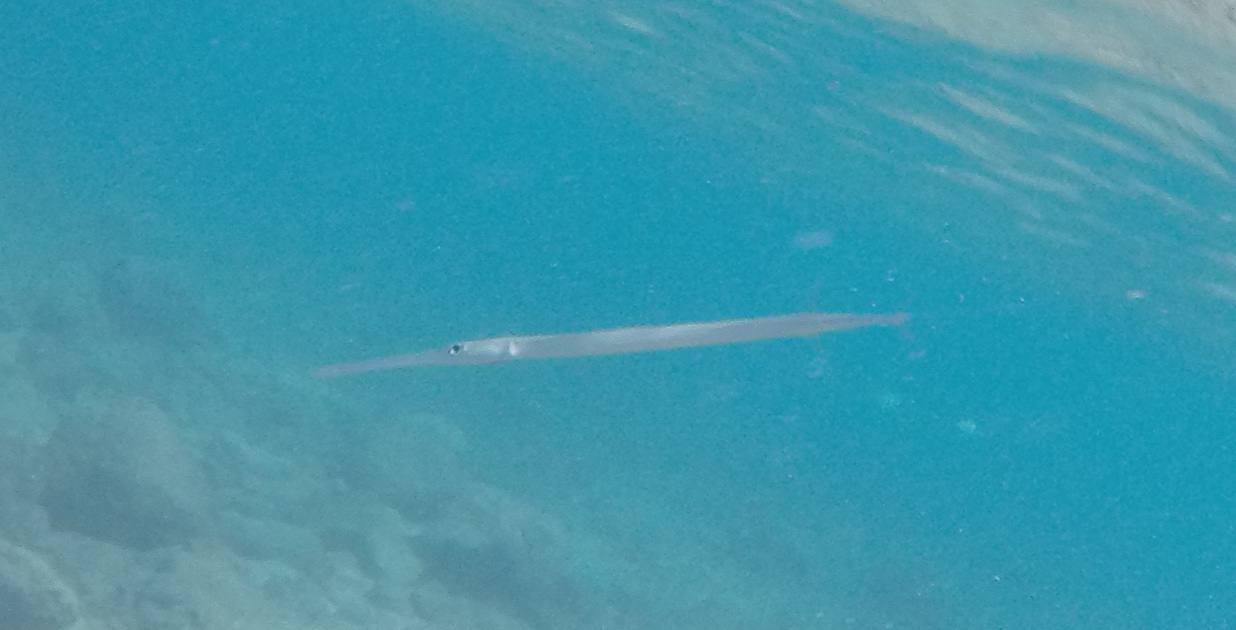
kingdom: Animalia
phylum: Chordata
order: Syngnathiformes
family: Fistulariidae
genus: Fistularia
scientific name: Fistularia commersonii
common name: Bluespotted cornetfish
